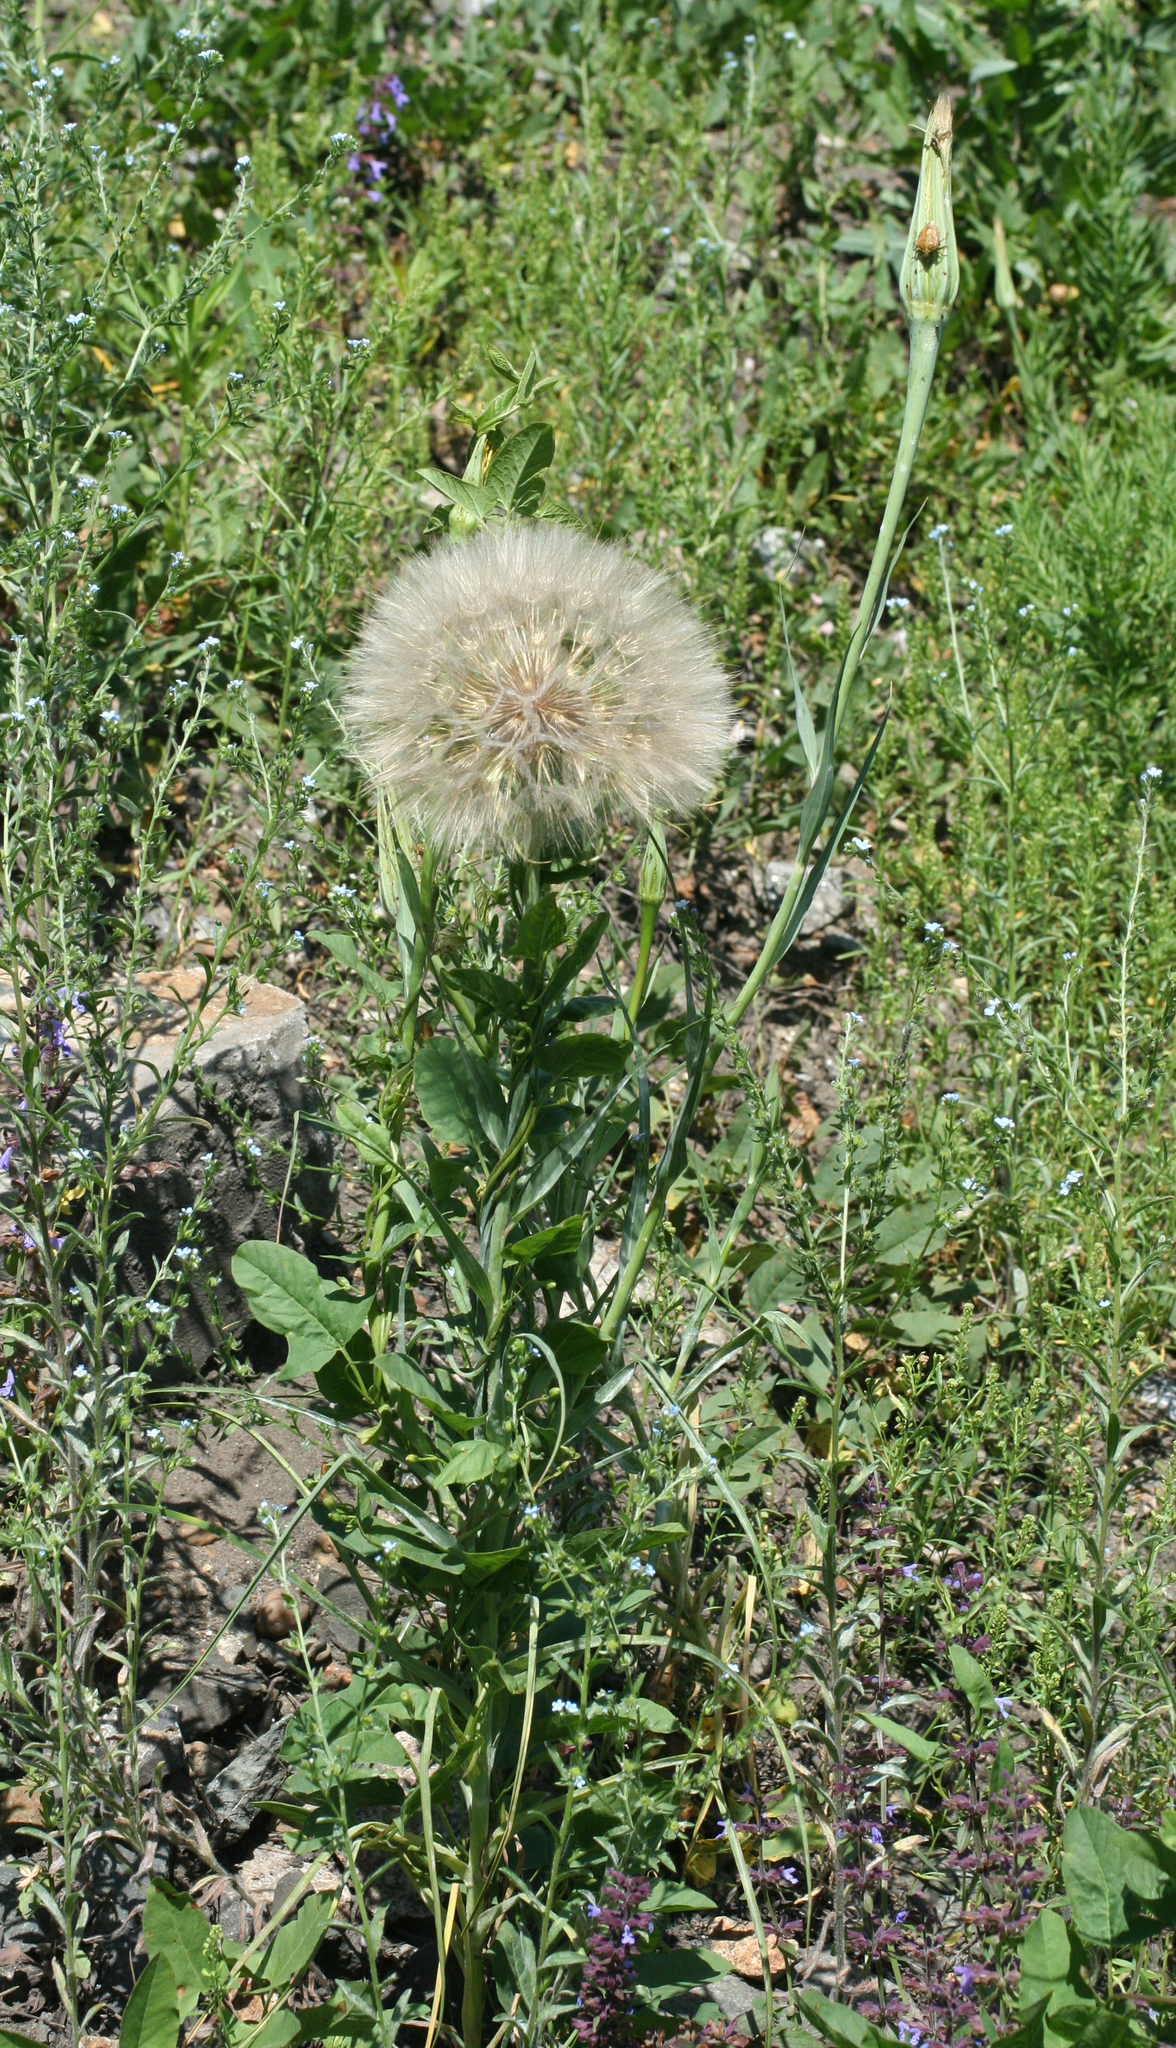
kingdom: Plantae
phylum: Tracheophyta
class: Magnoliopsida
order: Asterales
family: Asteraceae
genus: Tragopogon
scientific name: Tragopogon dubius
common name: Yellow salsify
